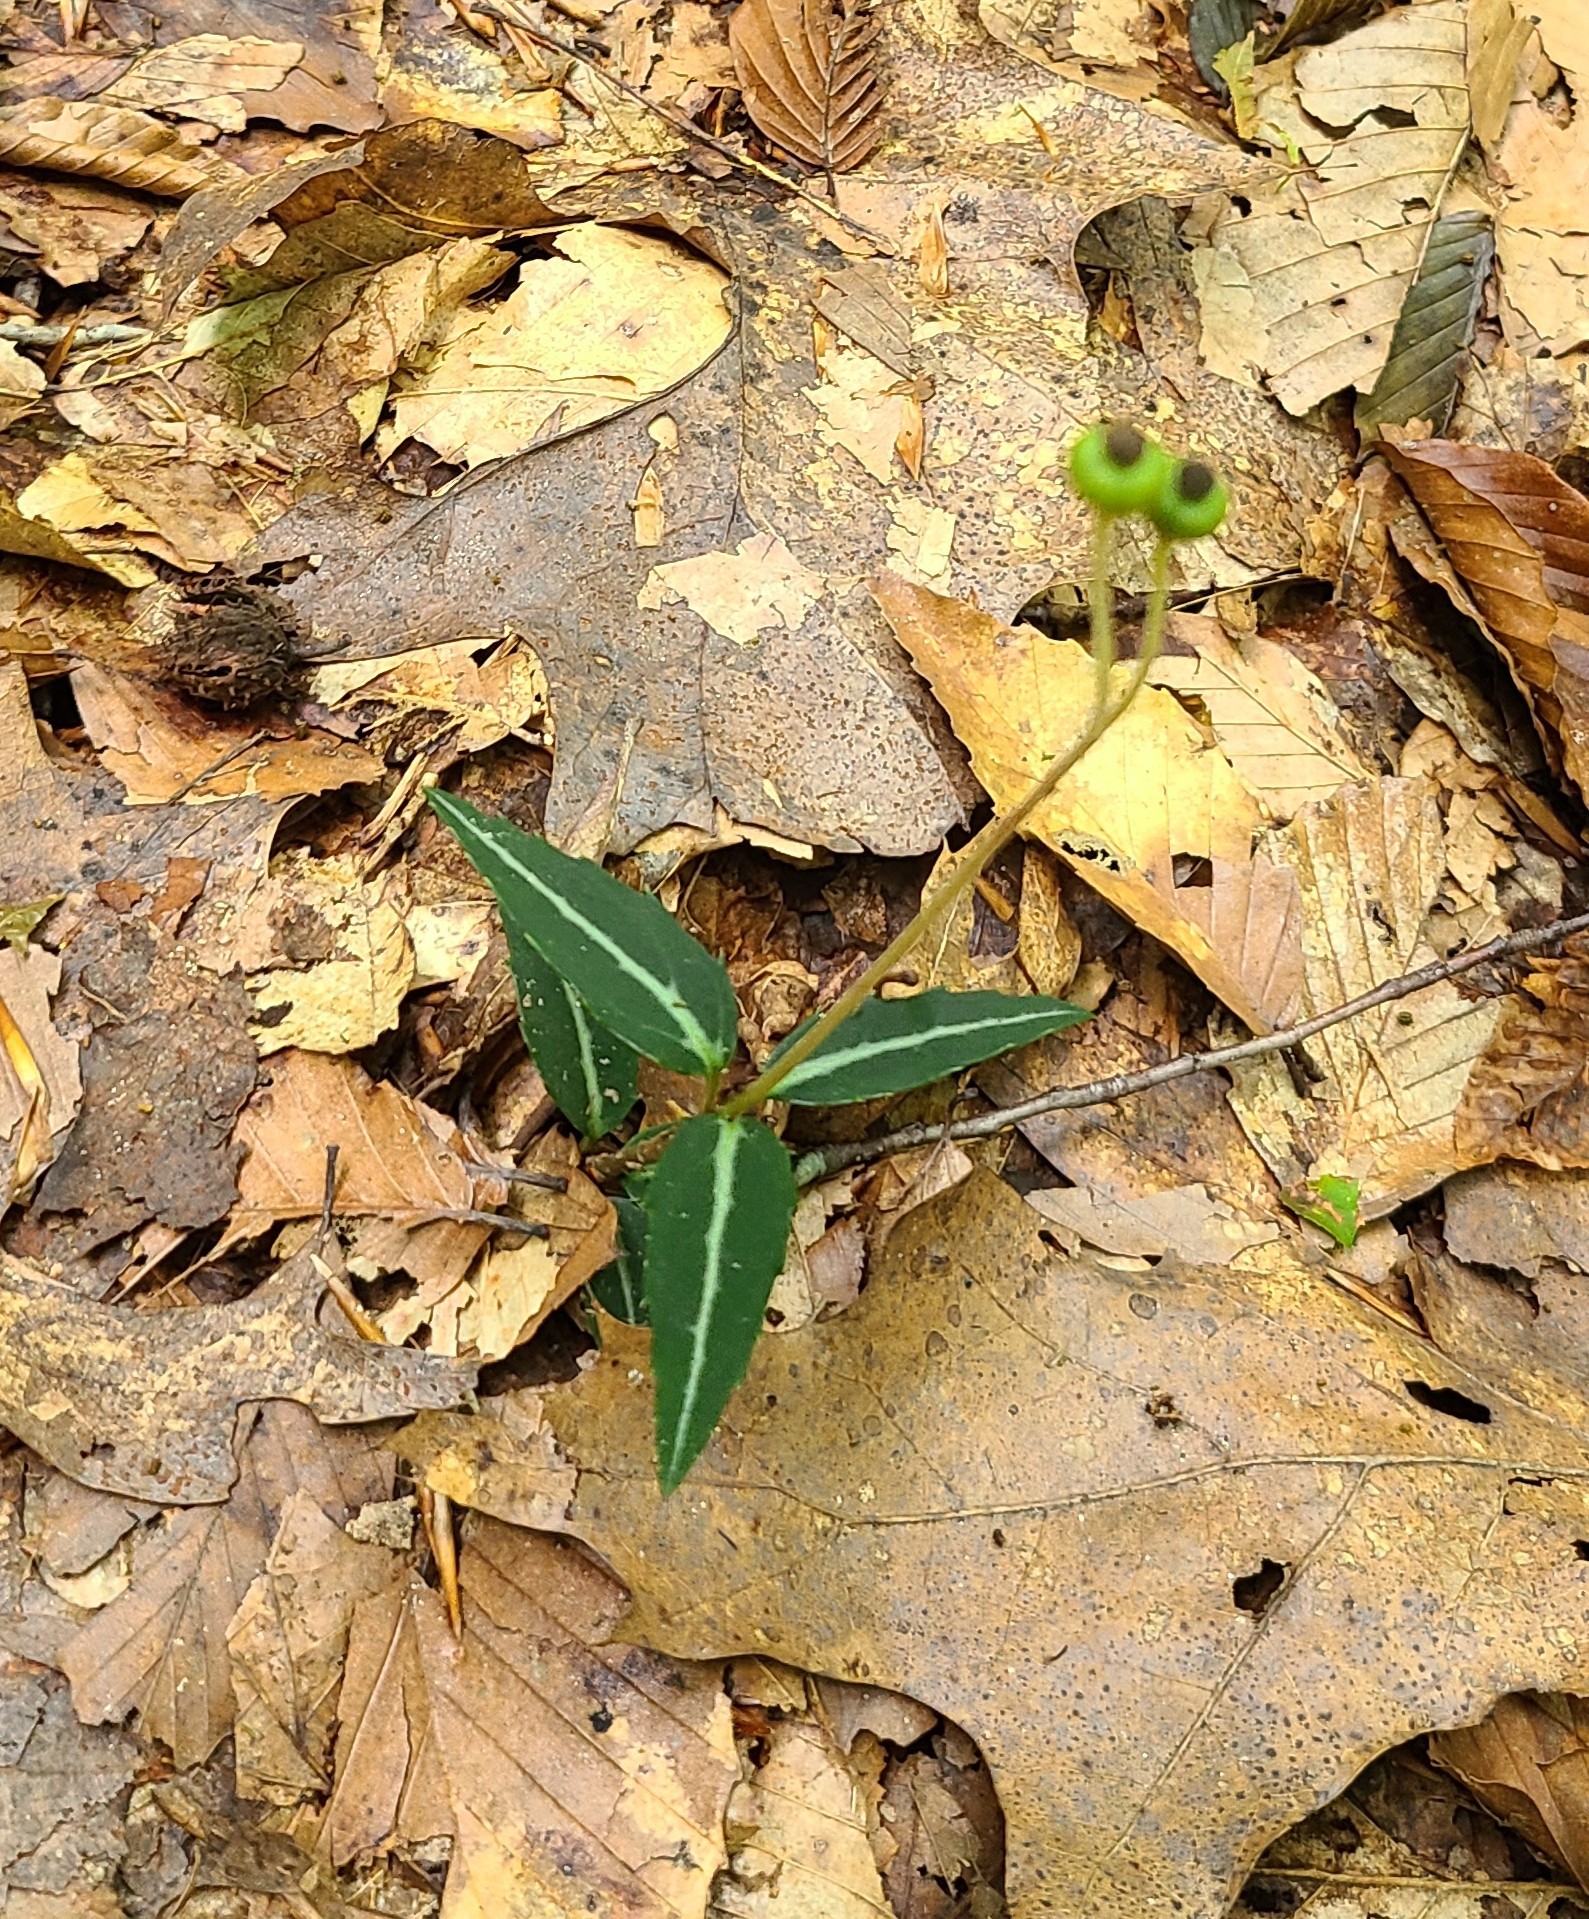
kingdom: Plantae
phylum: Tracheophyta
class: Magnoliopsida
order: Ericales
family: Ericaceae
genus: Chimaphila
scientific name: Chimaphila maculata
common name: Spotted pipsissewa
